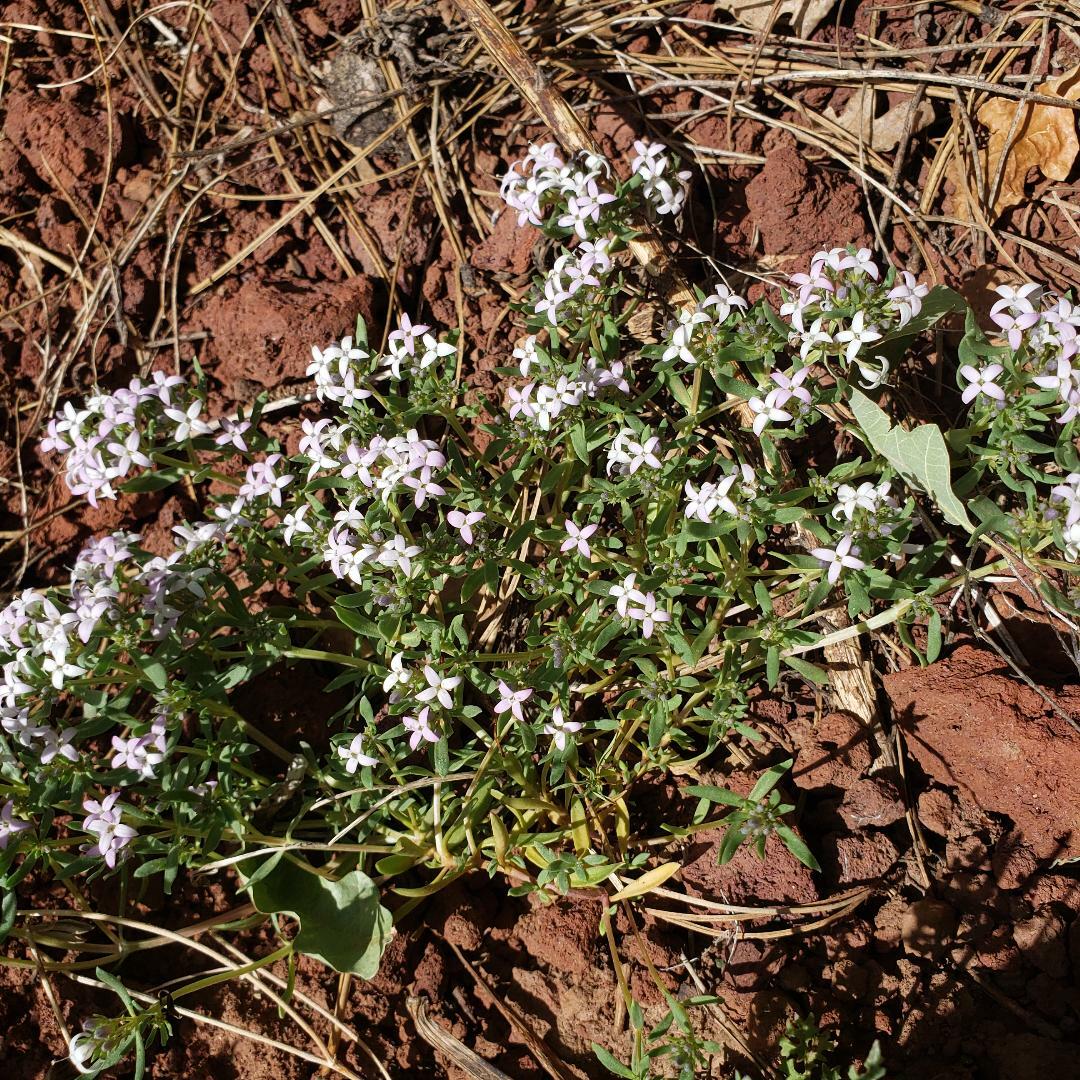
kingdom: Plantae
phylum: Tracheophyta
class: Magnoliopsida
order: Gentianales
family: Rubiaceae
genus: Houstonia
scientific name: Houstonia wrightii
